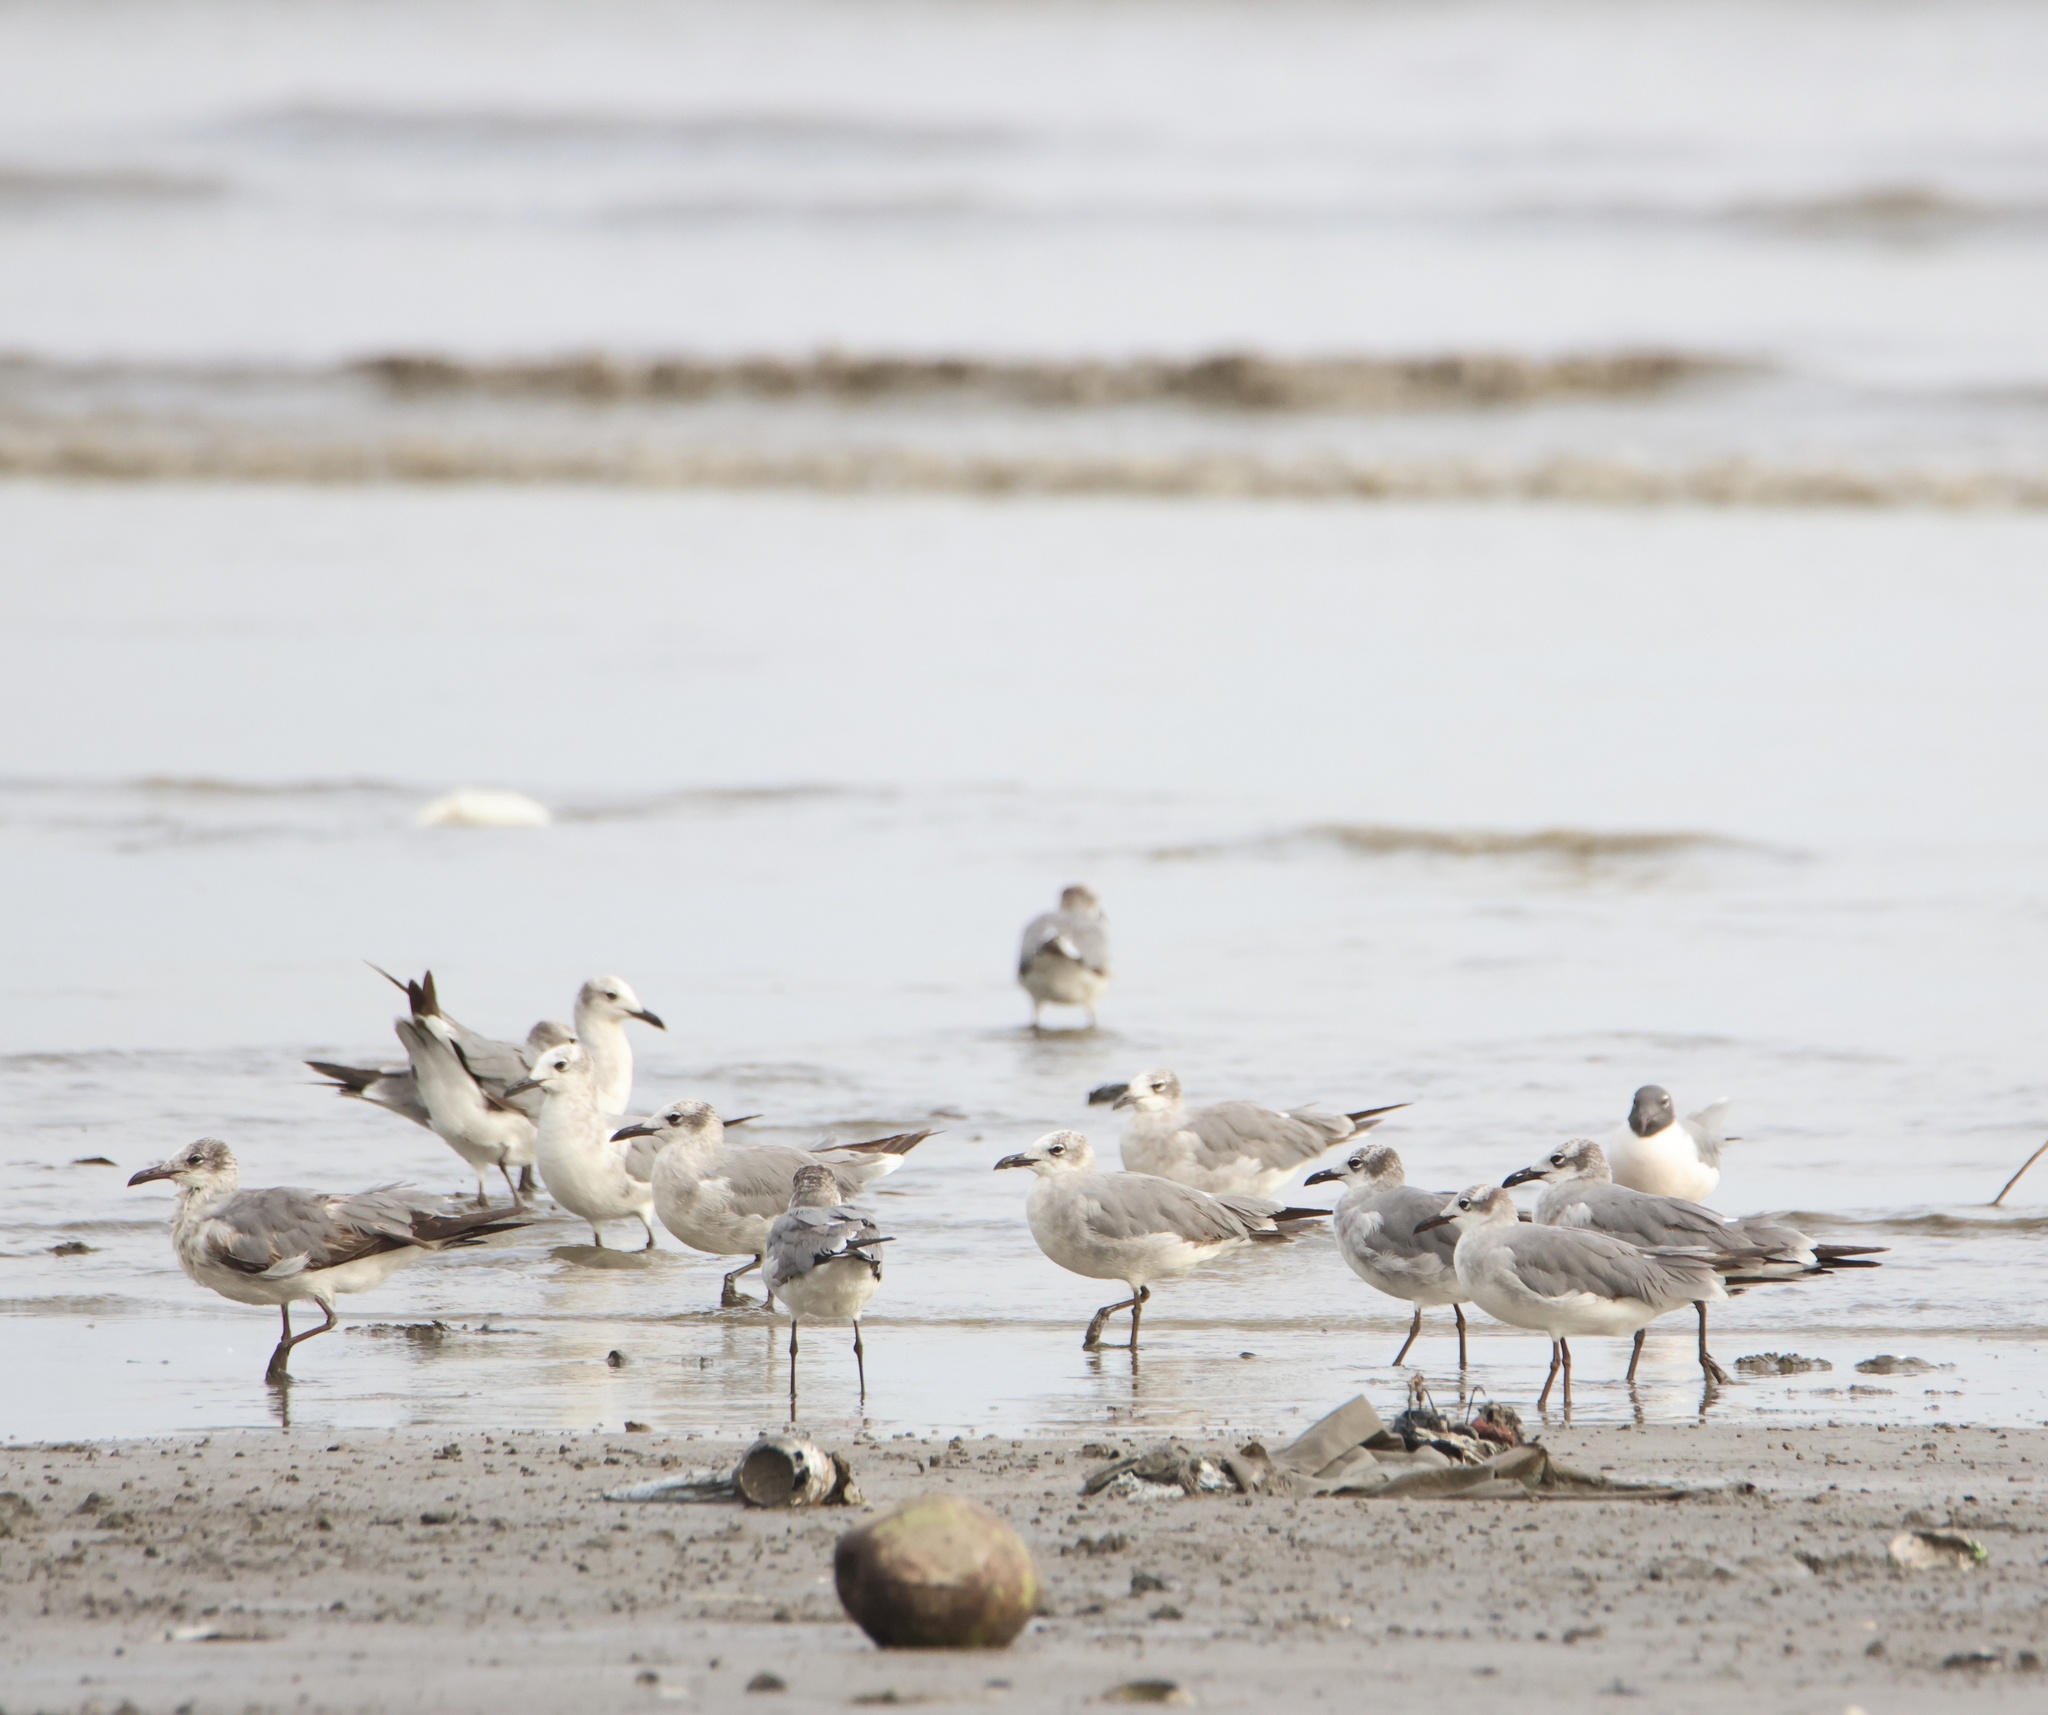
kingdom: Animalia
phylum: Chordata
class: Aves
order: Charadriiformes
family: Laridae
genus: Leucophaeus
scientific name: Leucophaeus atricilla
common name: Laughing gull
